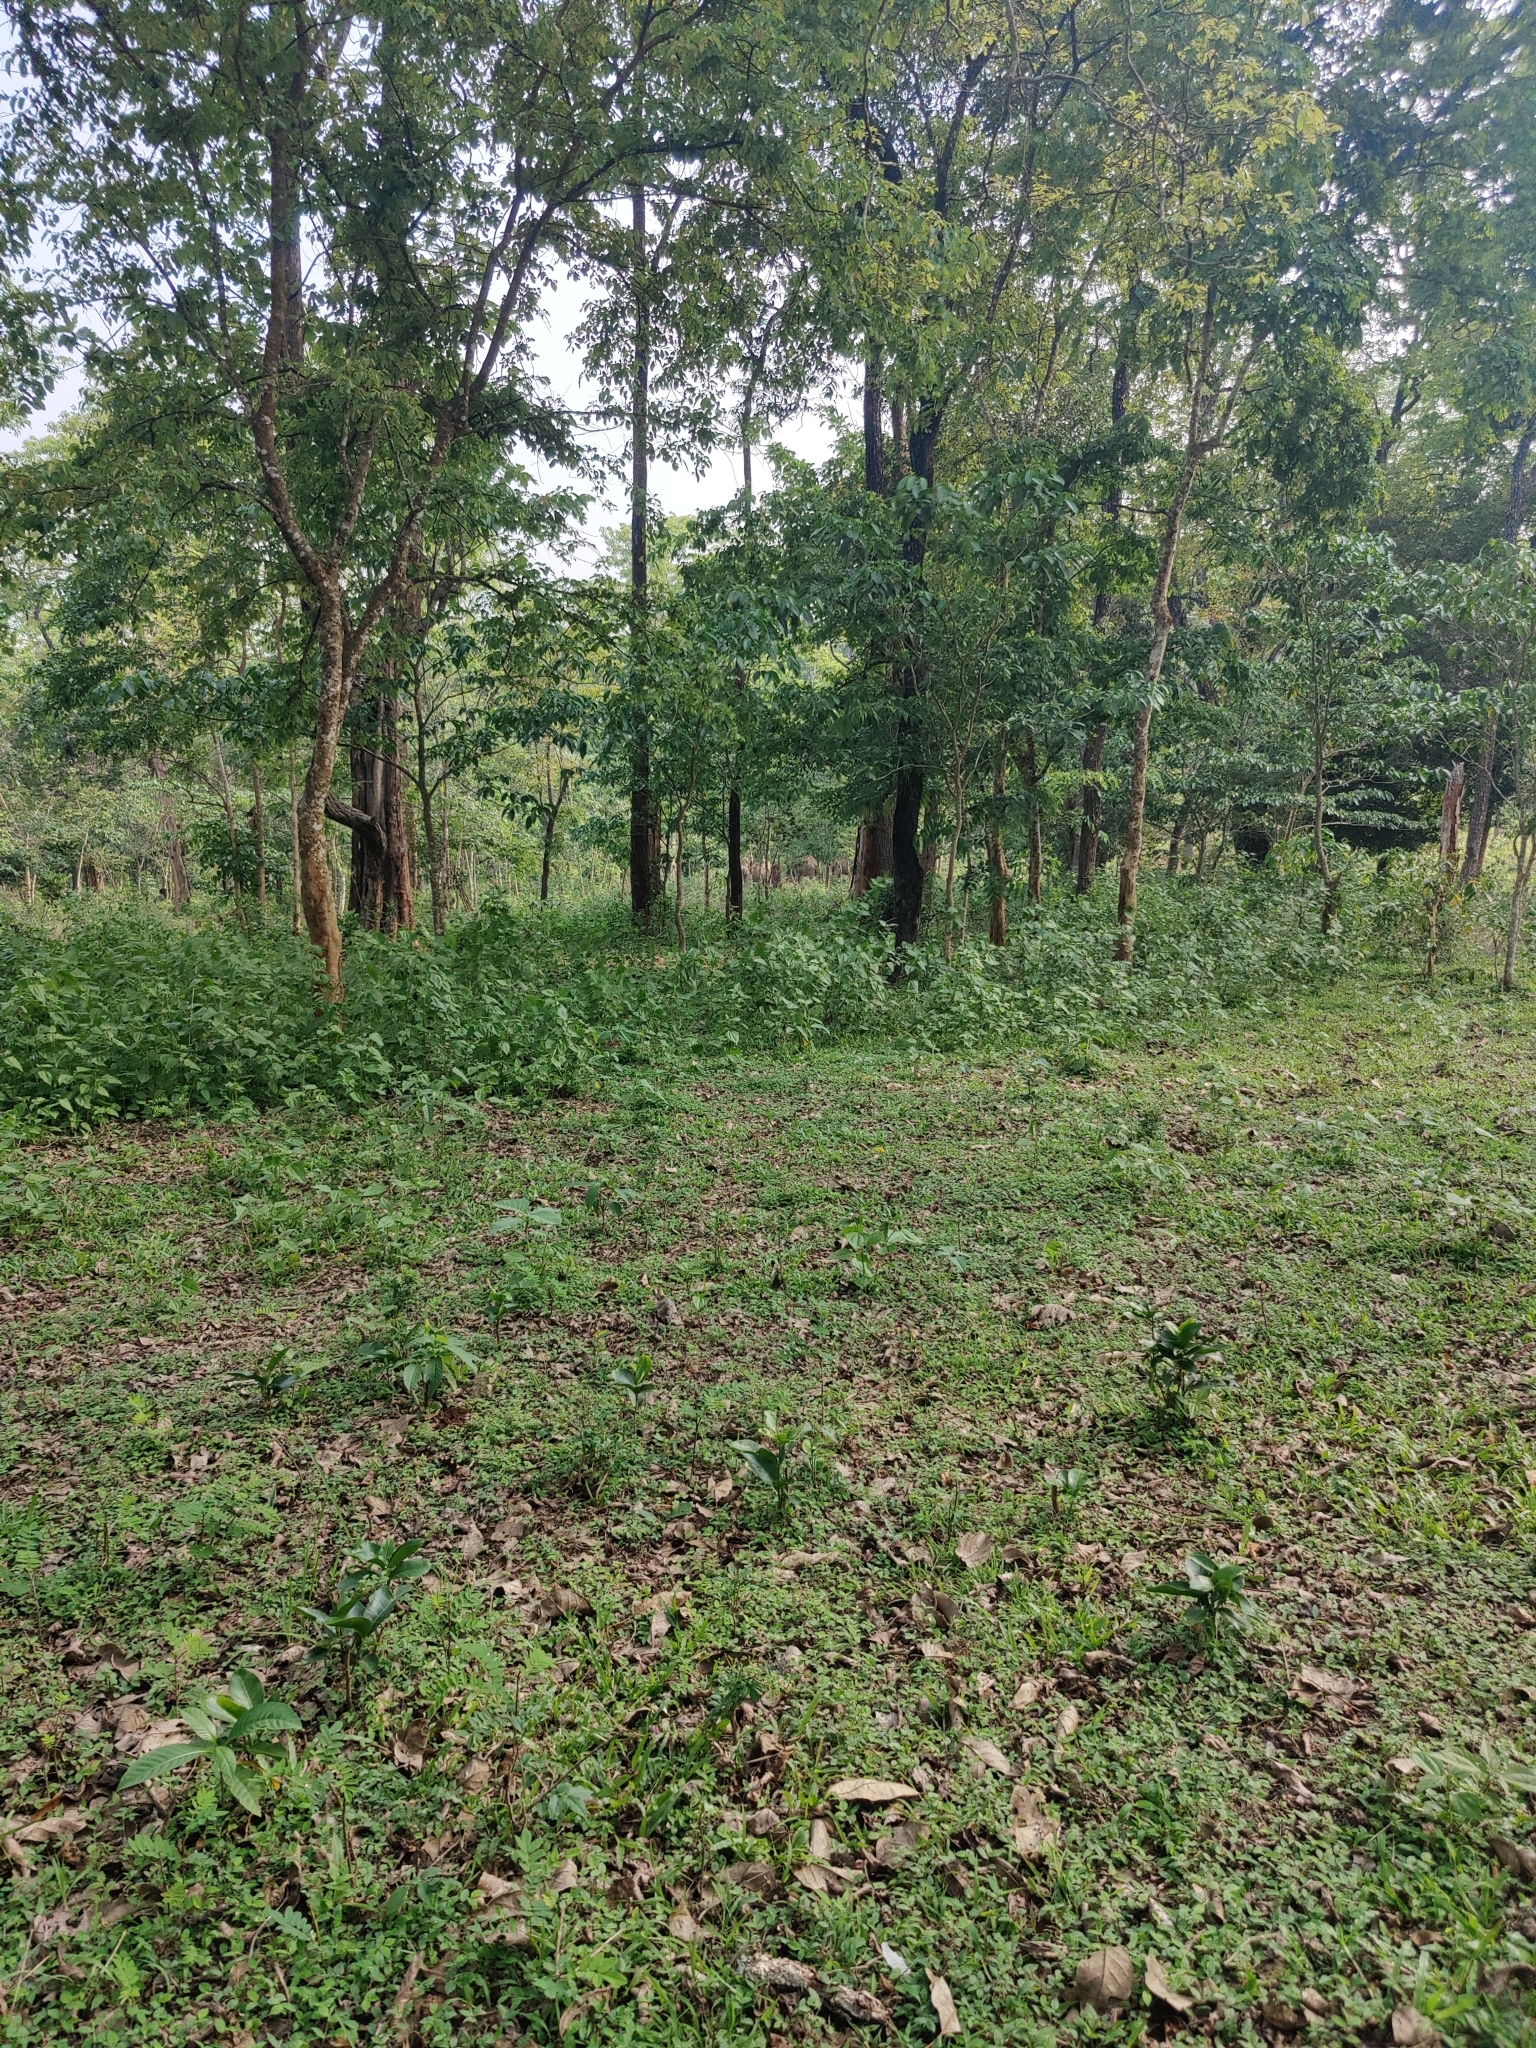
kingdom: Animalia
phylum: Chordata
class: Mammalia
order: Proboscidea
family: Elephantidae
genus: Elephas
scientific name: Elephas maximus
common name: Asian elephant
